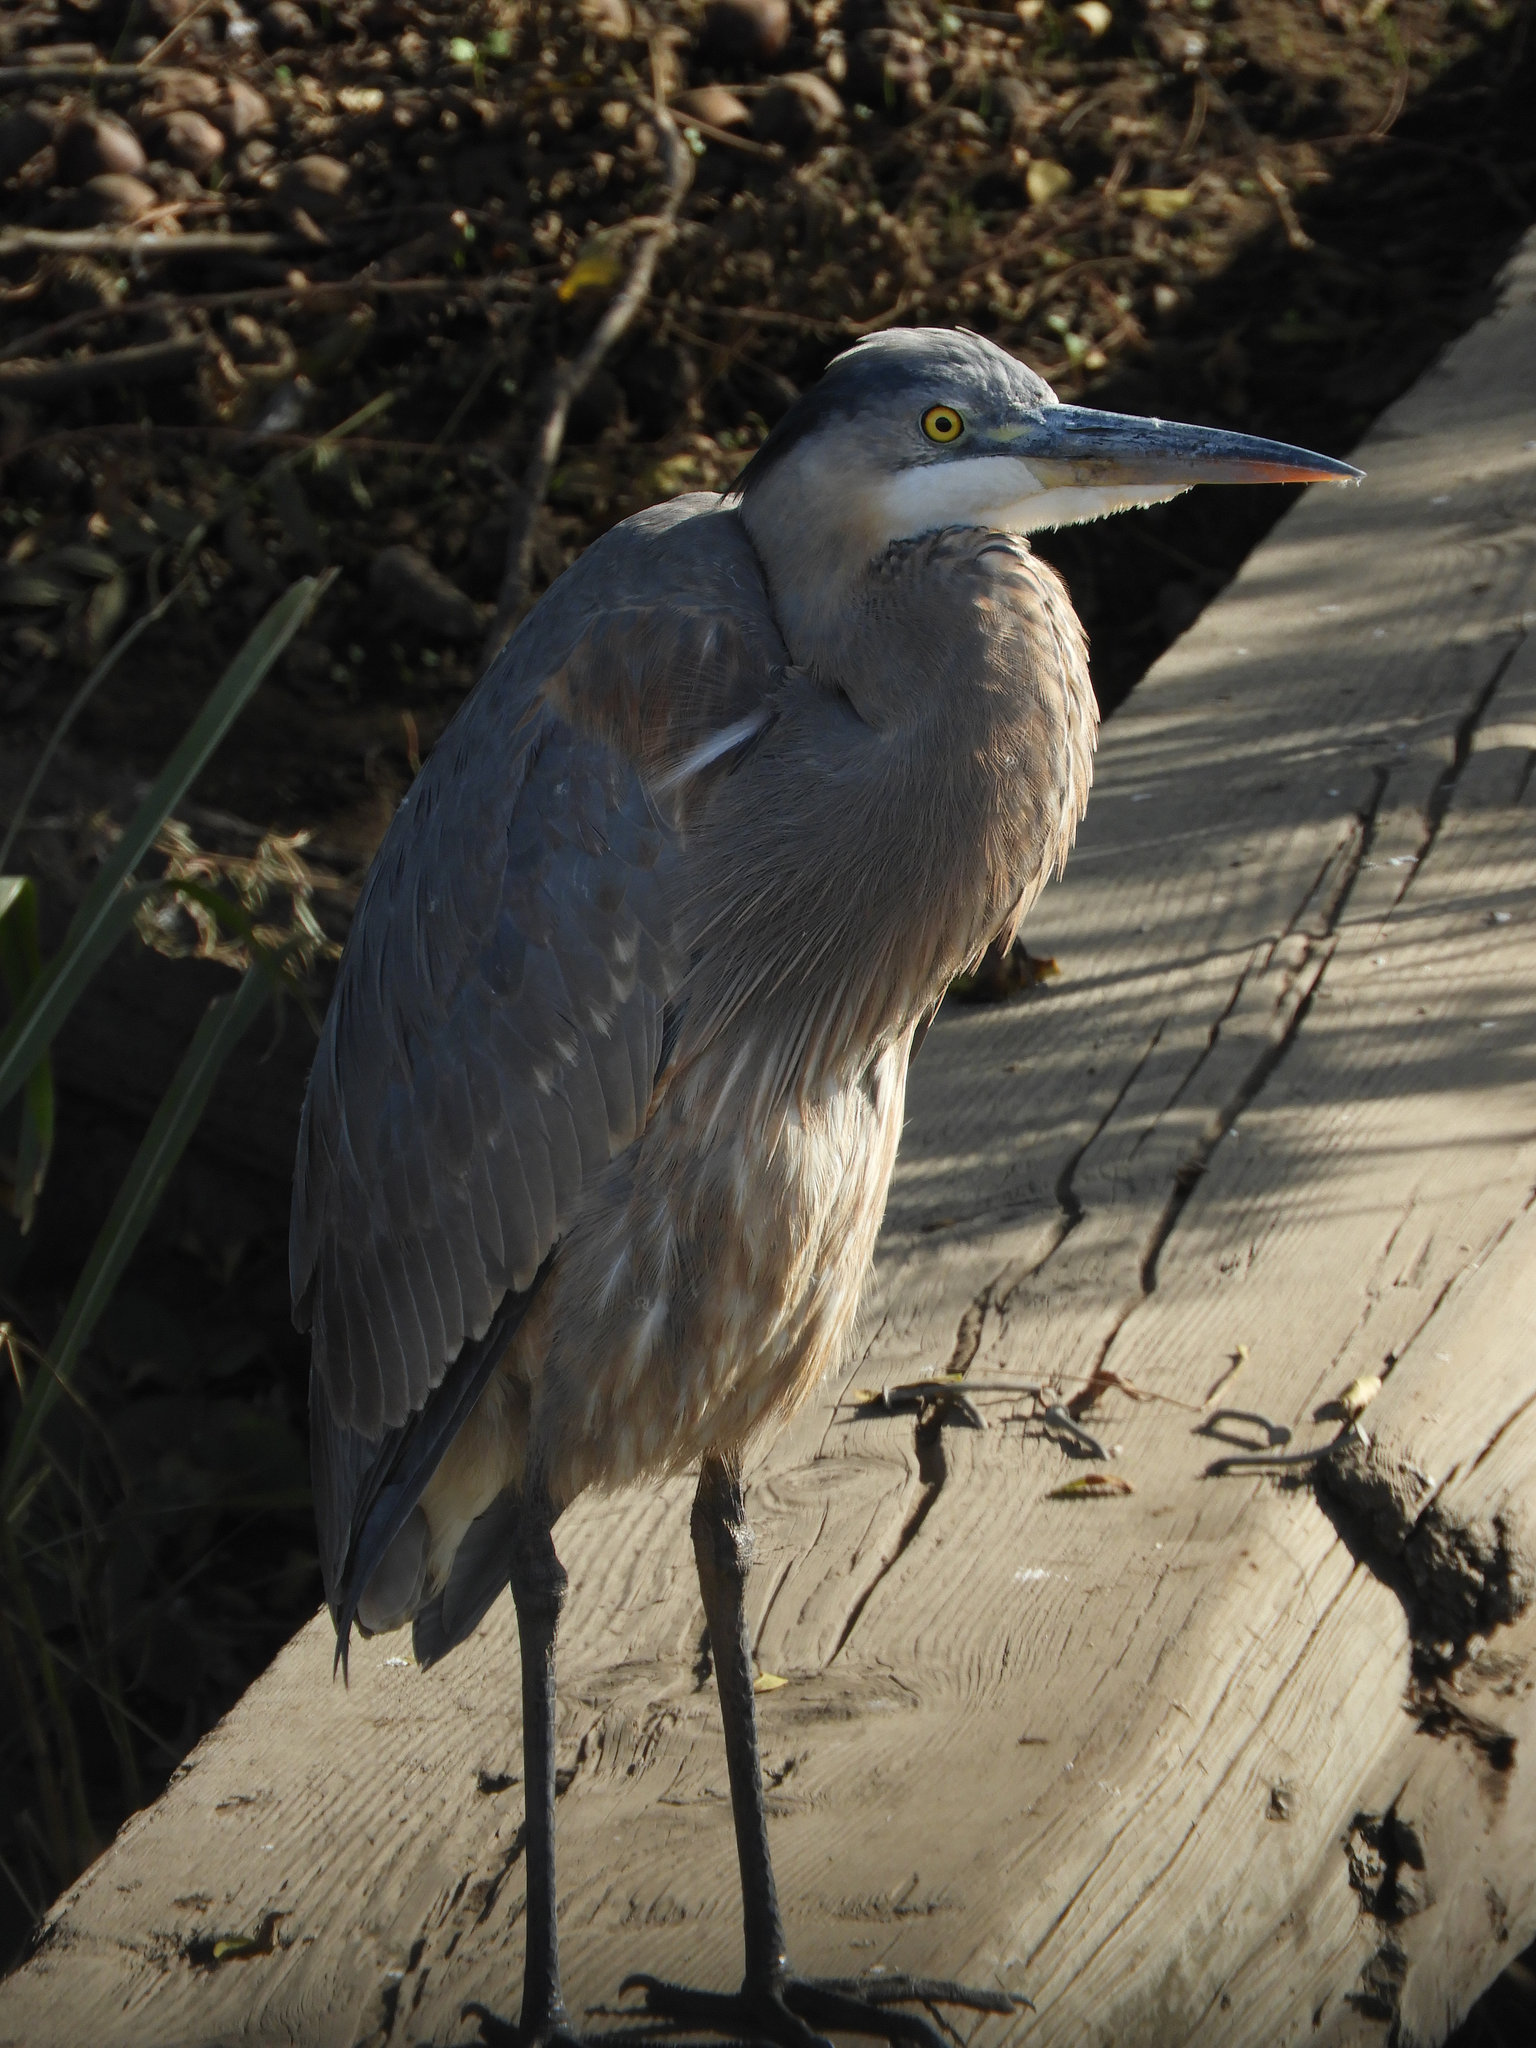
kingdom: Animalia
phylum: Chordata
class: Aves
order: Pelecaniformes
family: Ardeidae
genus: Ardea
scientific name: Ardea herodias
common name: Great blue heron
